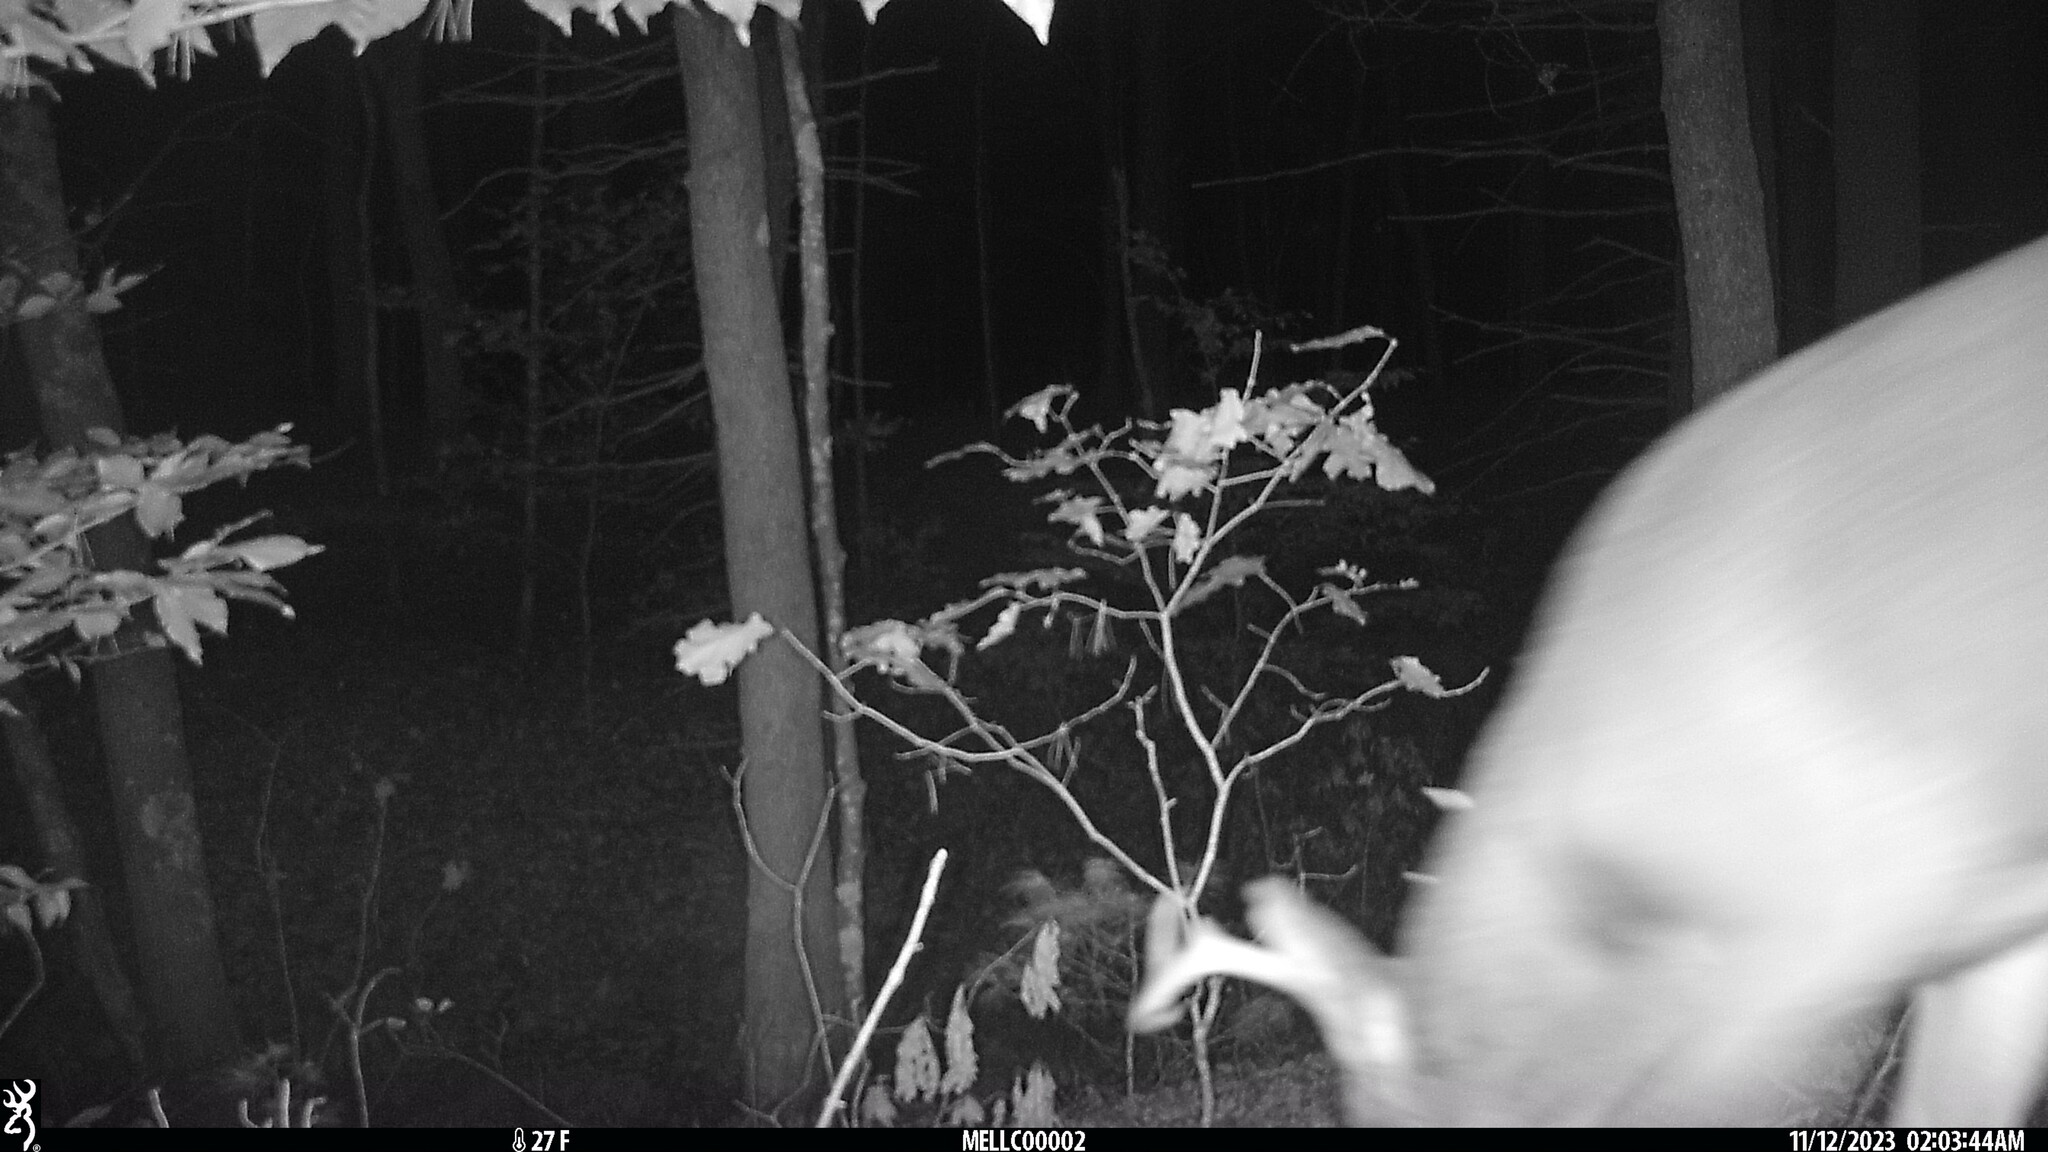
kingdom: Animalia
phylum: Chordata
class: Mammalia
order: Artiodactyla
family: Cervidae
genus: Odocoileus
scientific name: Odocoileus virginianus
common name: White-tailed deer
